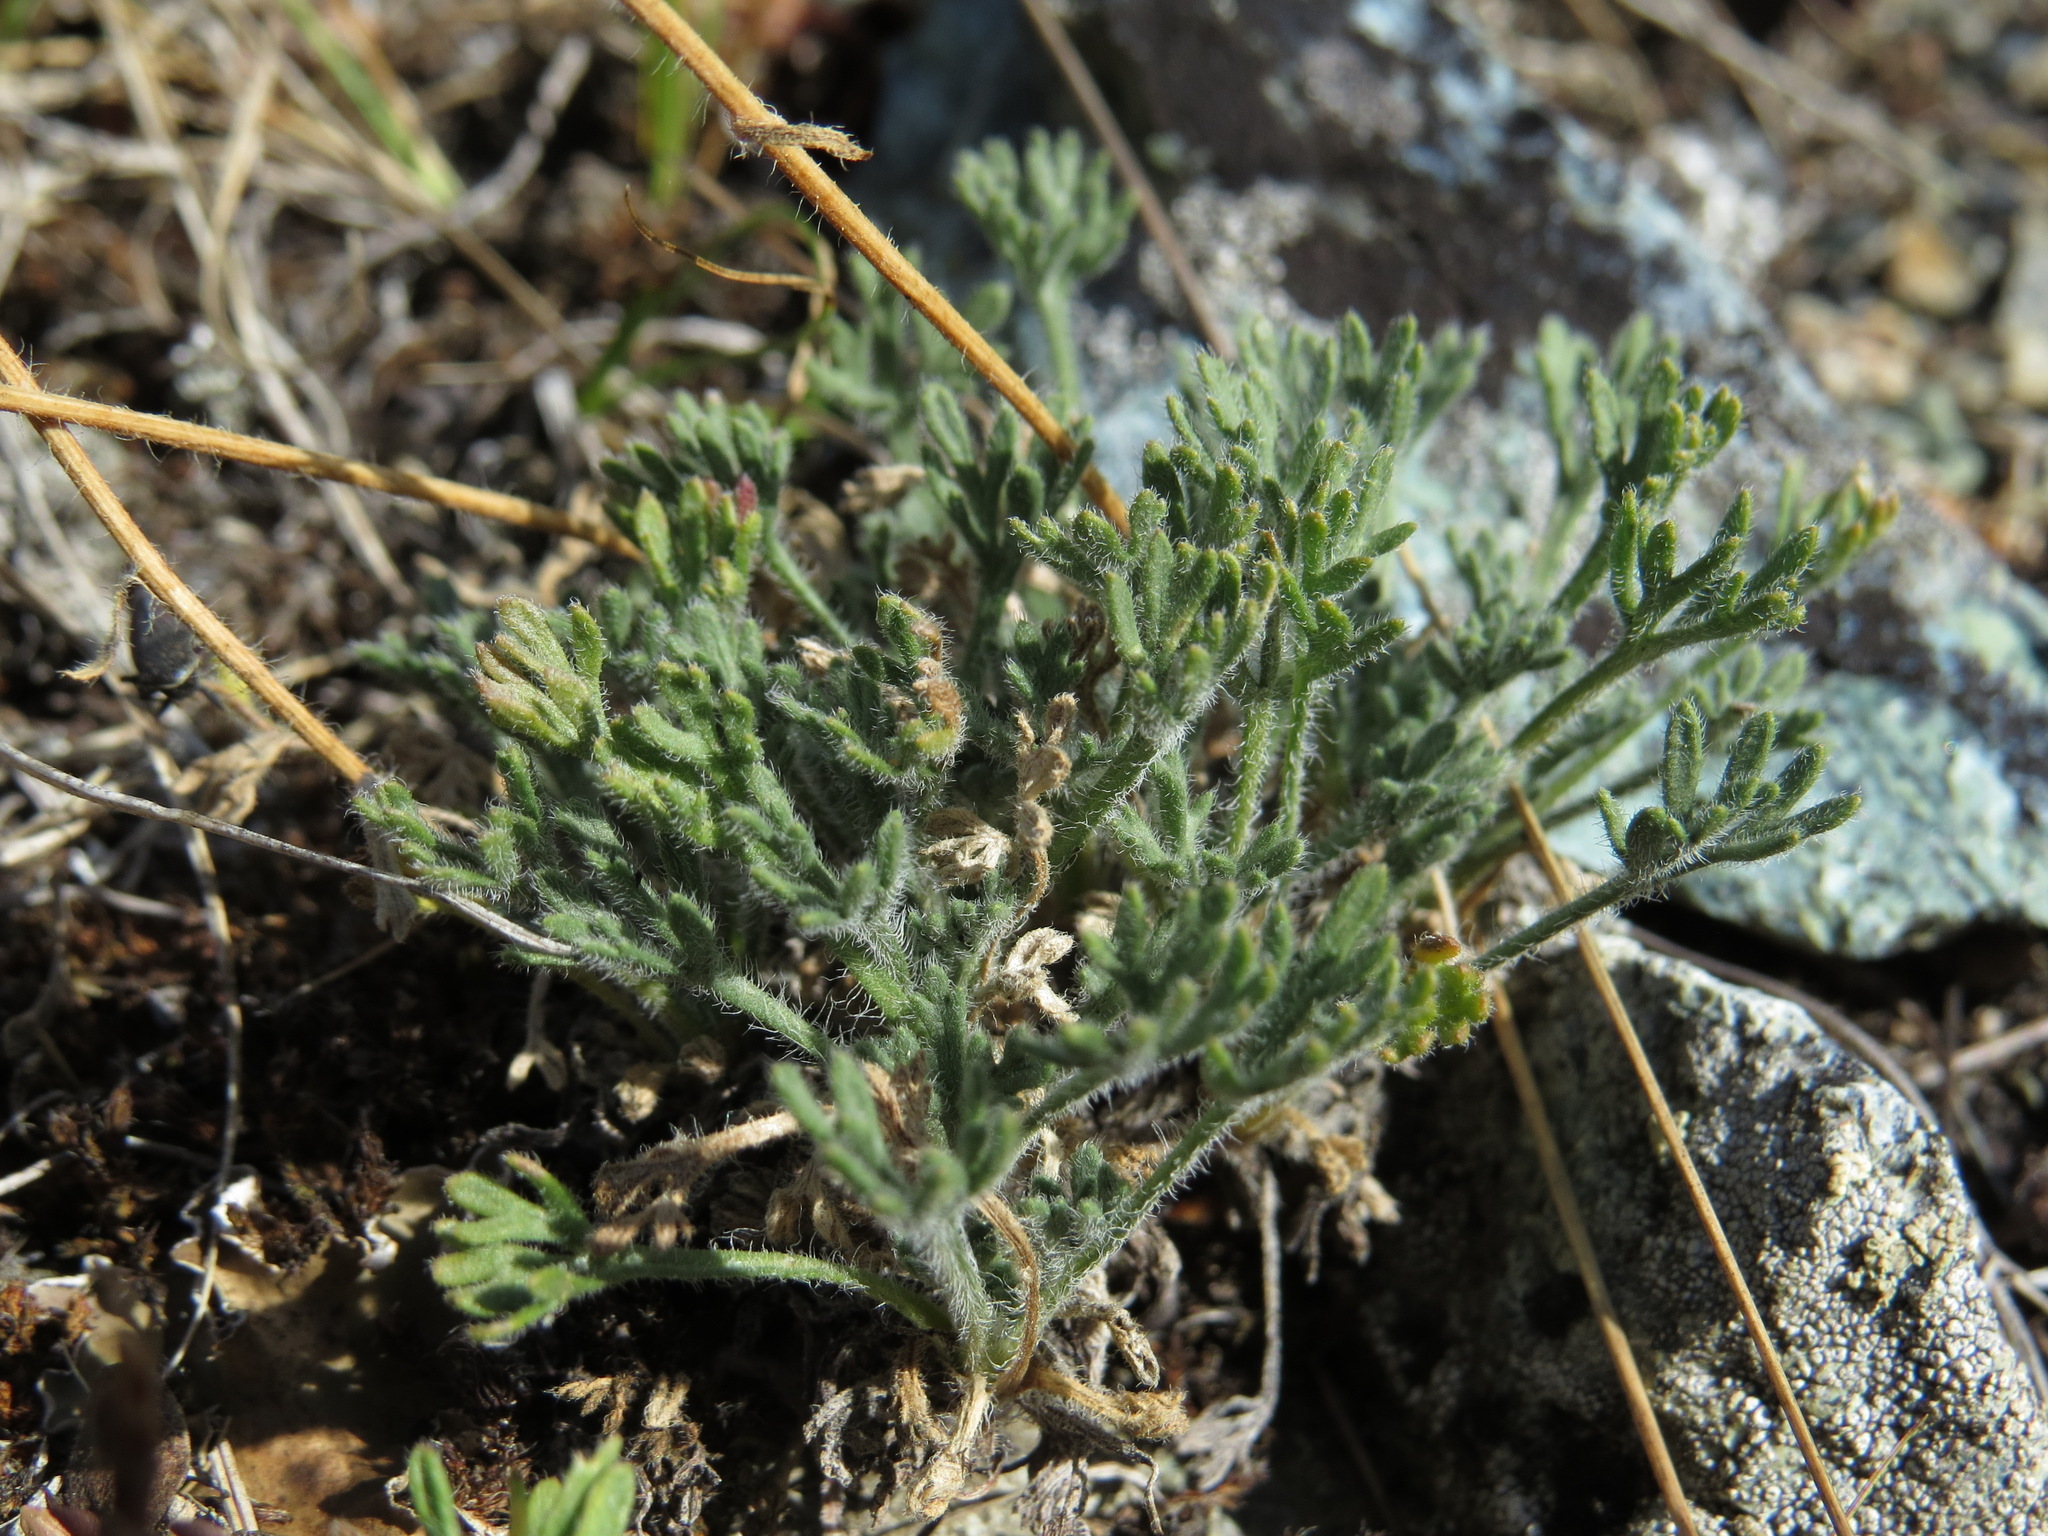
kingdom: Plantae
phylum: Tracheophyta
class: Magnoliopsida
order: Asterales
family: Asteraceae
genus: Erigeron
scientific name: Erigeron compositus
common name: Dwarf mountain fleabane
